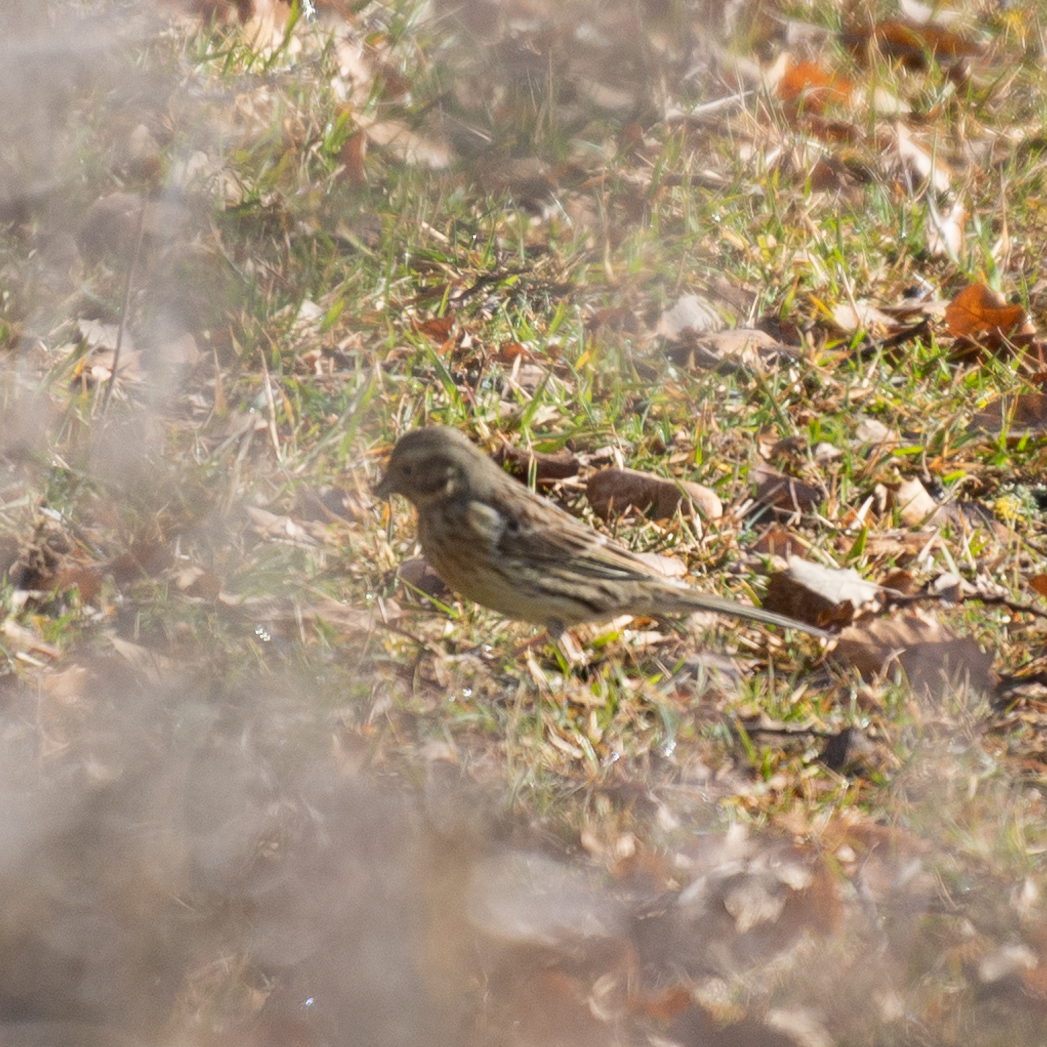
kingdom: Animalia
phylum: Chordata
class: Aves
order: Passeriformes
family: Emberizidae
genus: Emberiza
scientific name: Emberiza cirlus
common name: Cirl bunting
